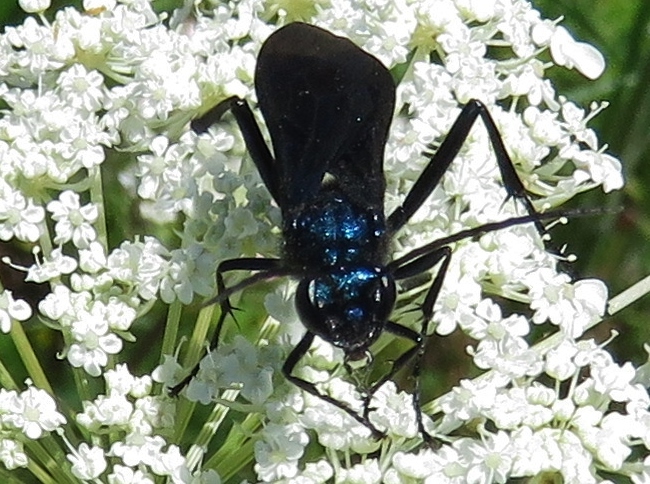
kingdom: Animalia
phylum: Arthropoda
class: Insecta
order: Hymenoptera
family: Sphecidae
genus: Chalybion
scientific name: Chalybion californicum
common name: Mud dauber
